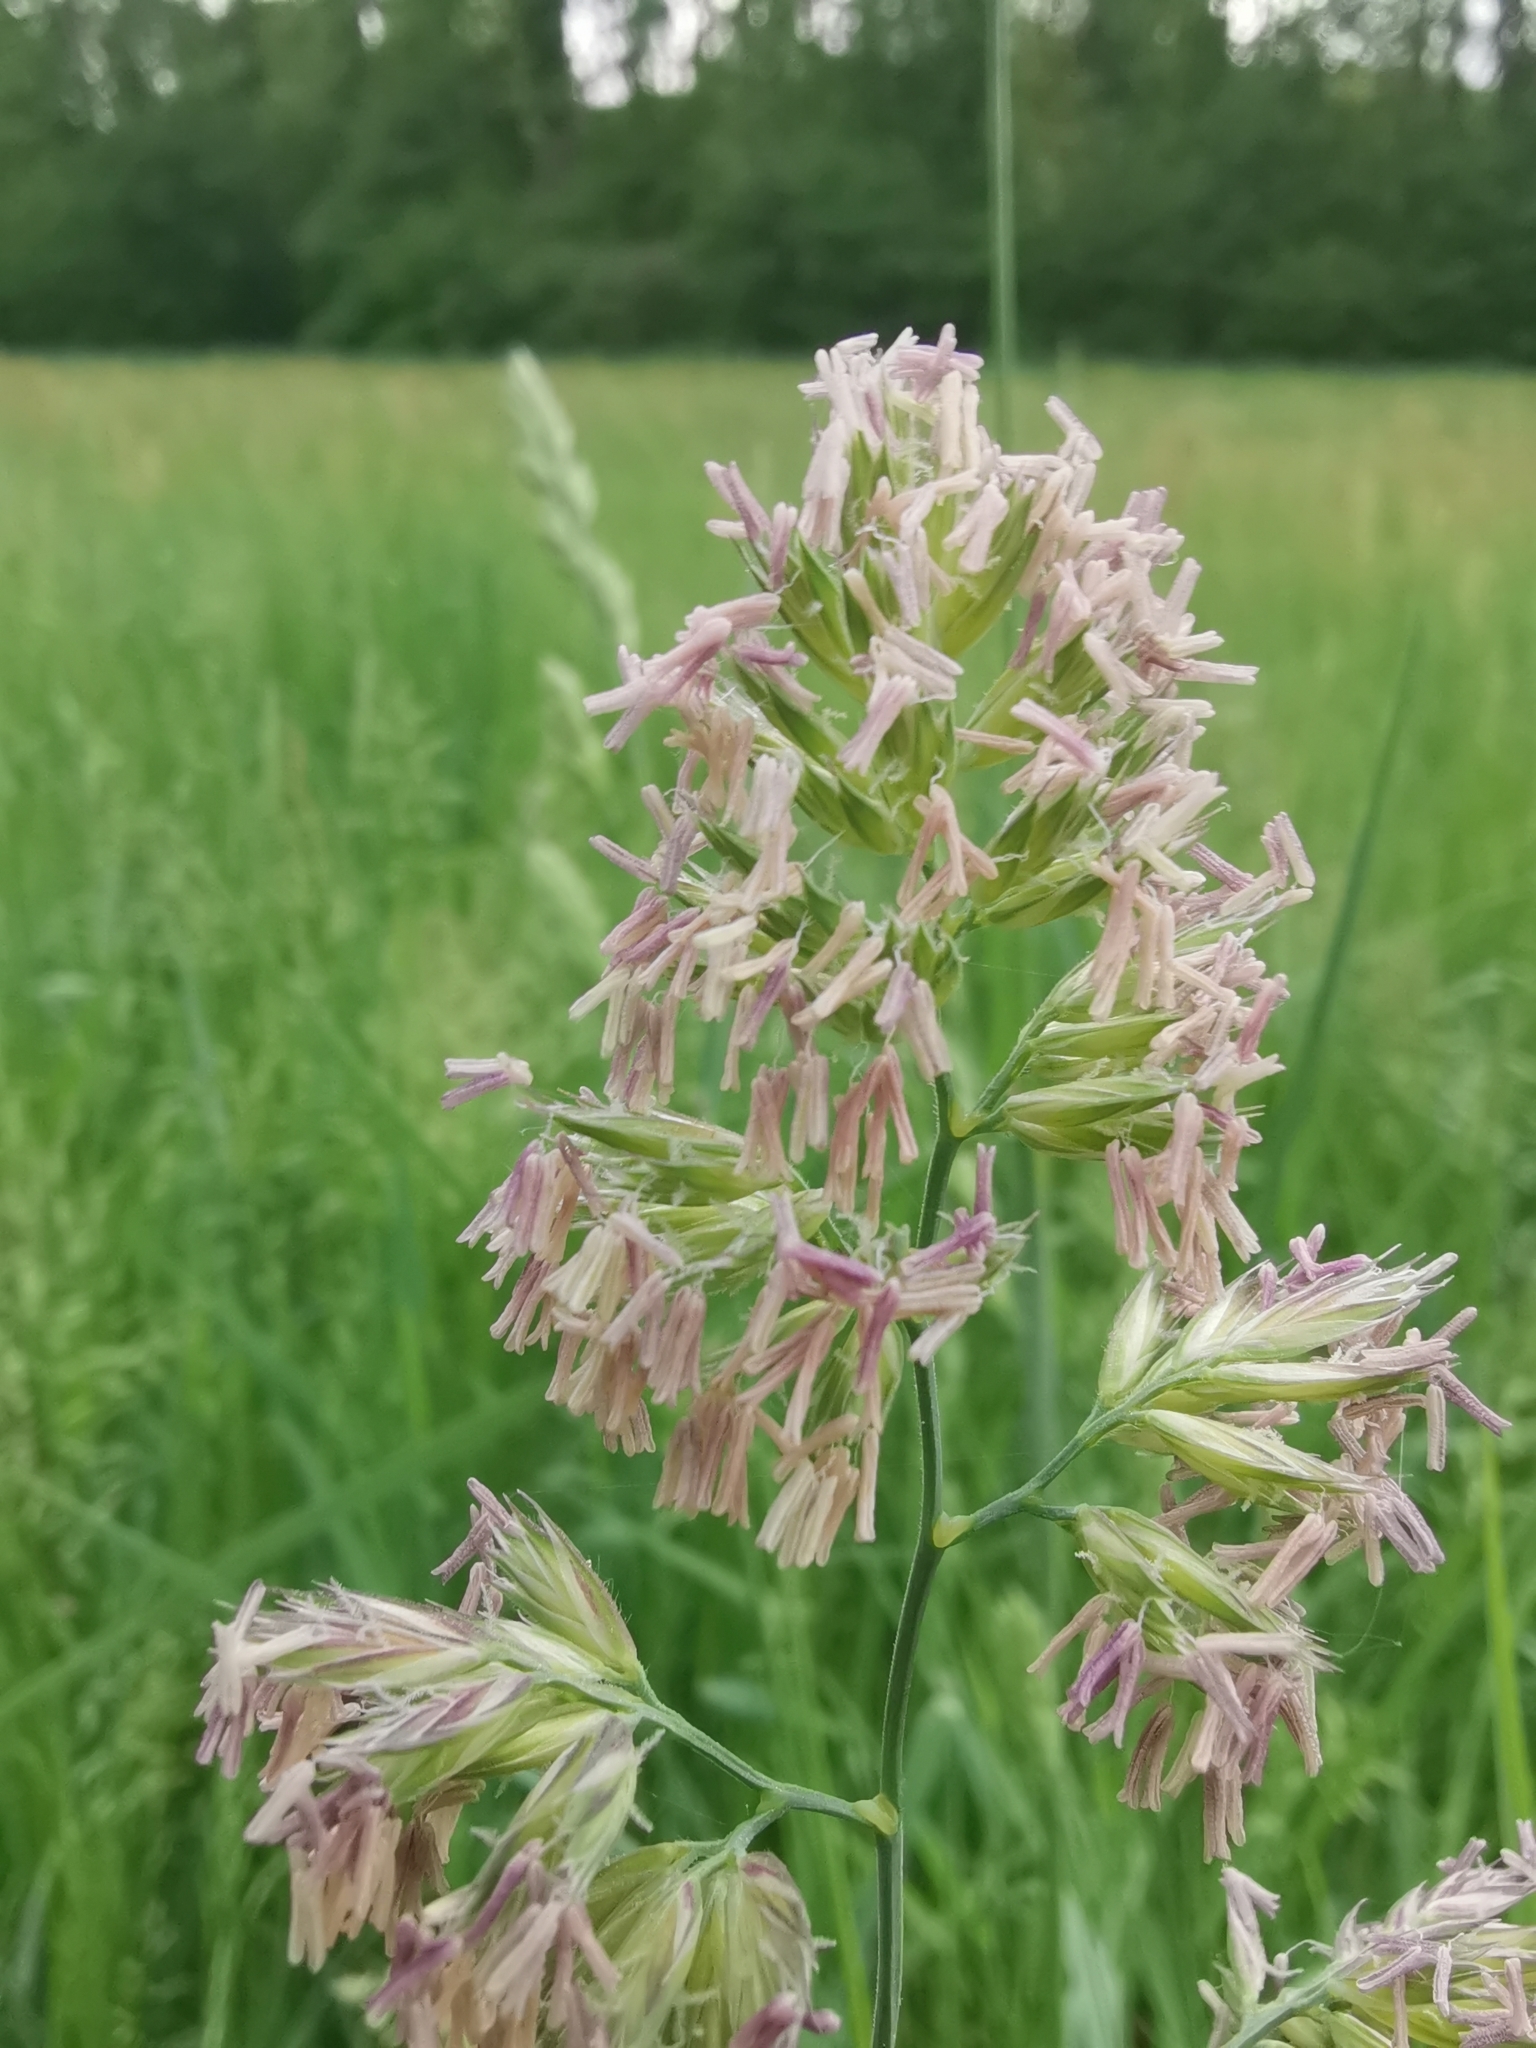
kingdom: Plantae
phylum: Tracheophyta
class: Liliopsida
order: Poales
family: Poaceae
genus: Dactylis
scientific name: Dactylis glomerata
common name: Orchardgrass
